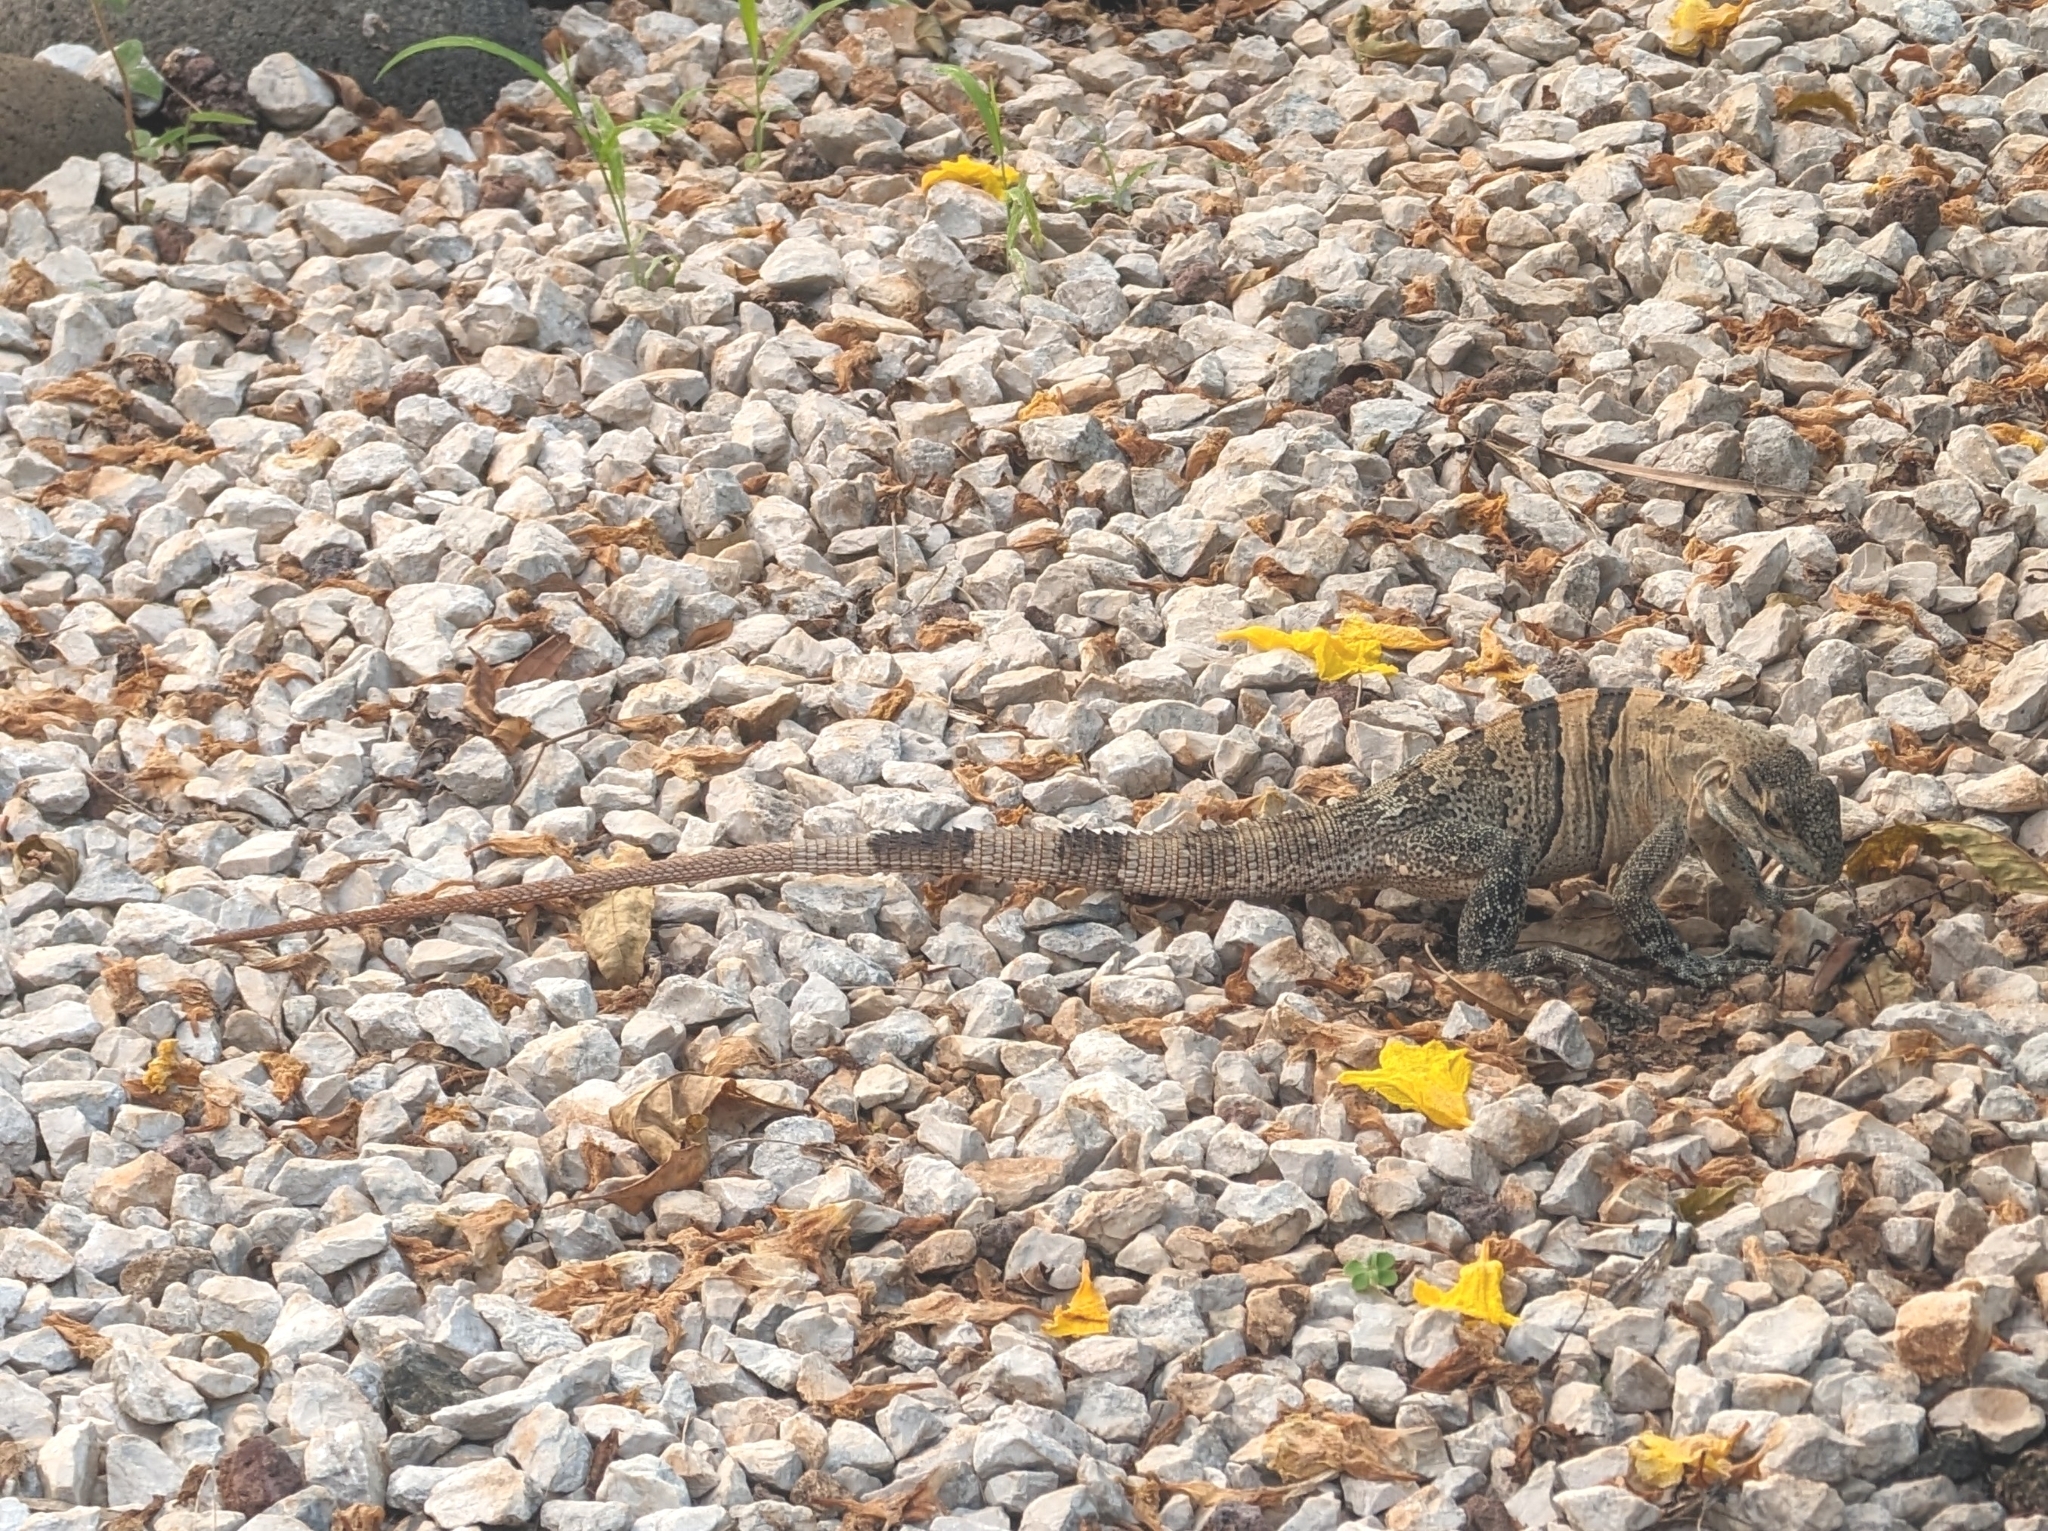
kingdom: Animalia
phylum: Chordata
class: Squamata
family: Iguanidae
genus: Ctenosaura
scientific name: Ctenosaura similis
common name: Black spiny-tailed iguana
